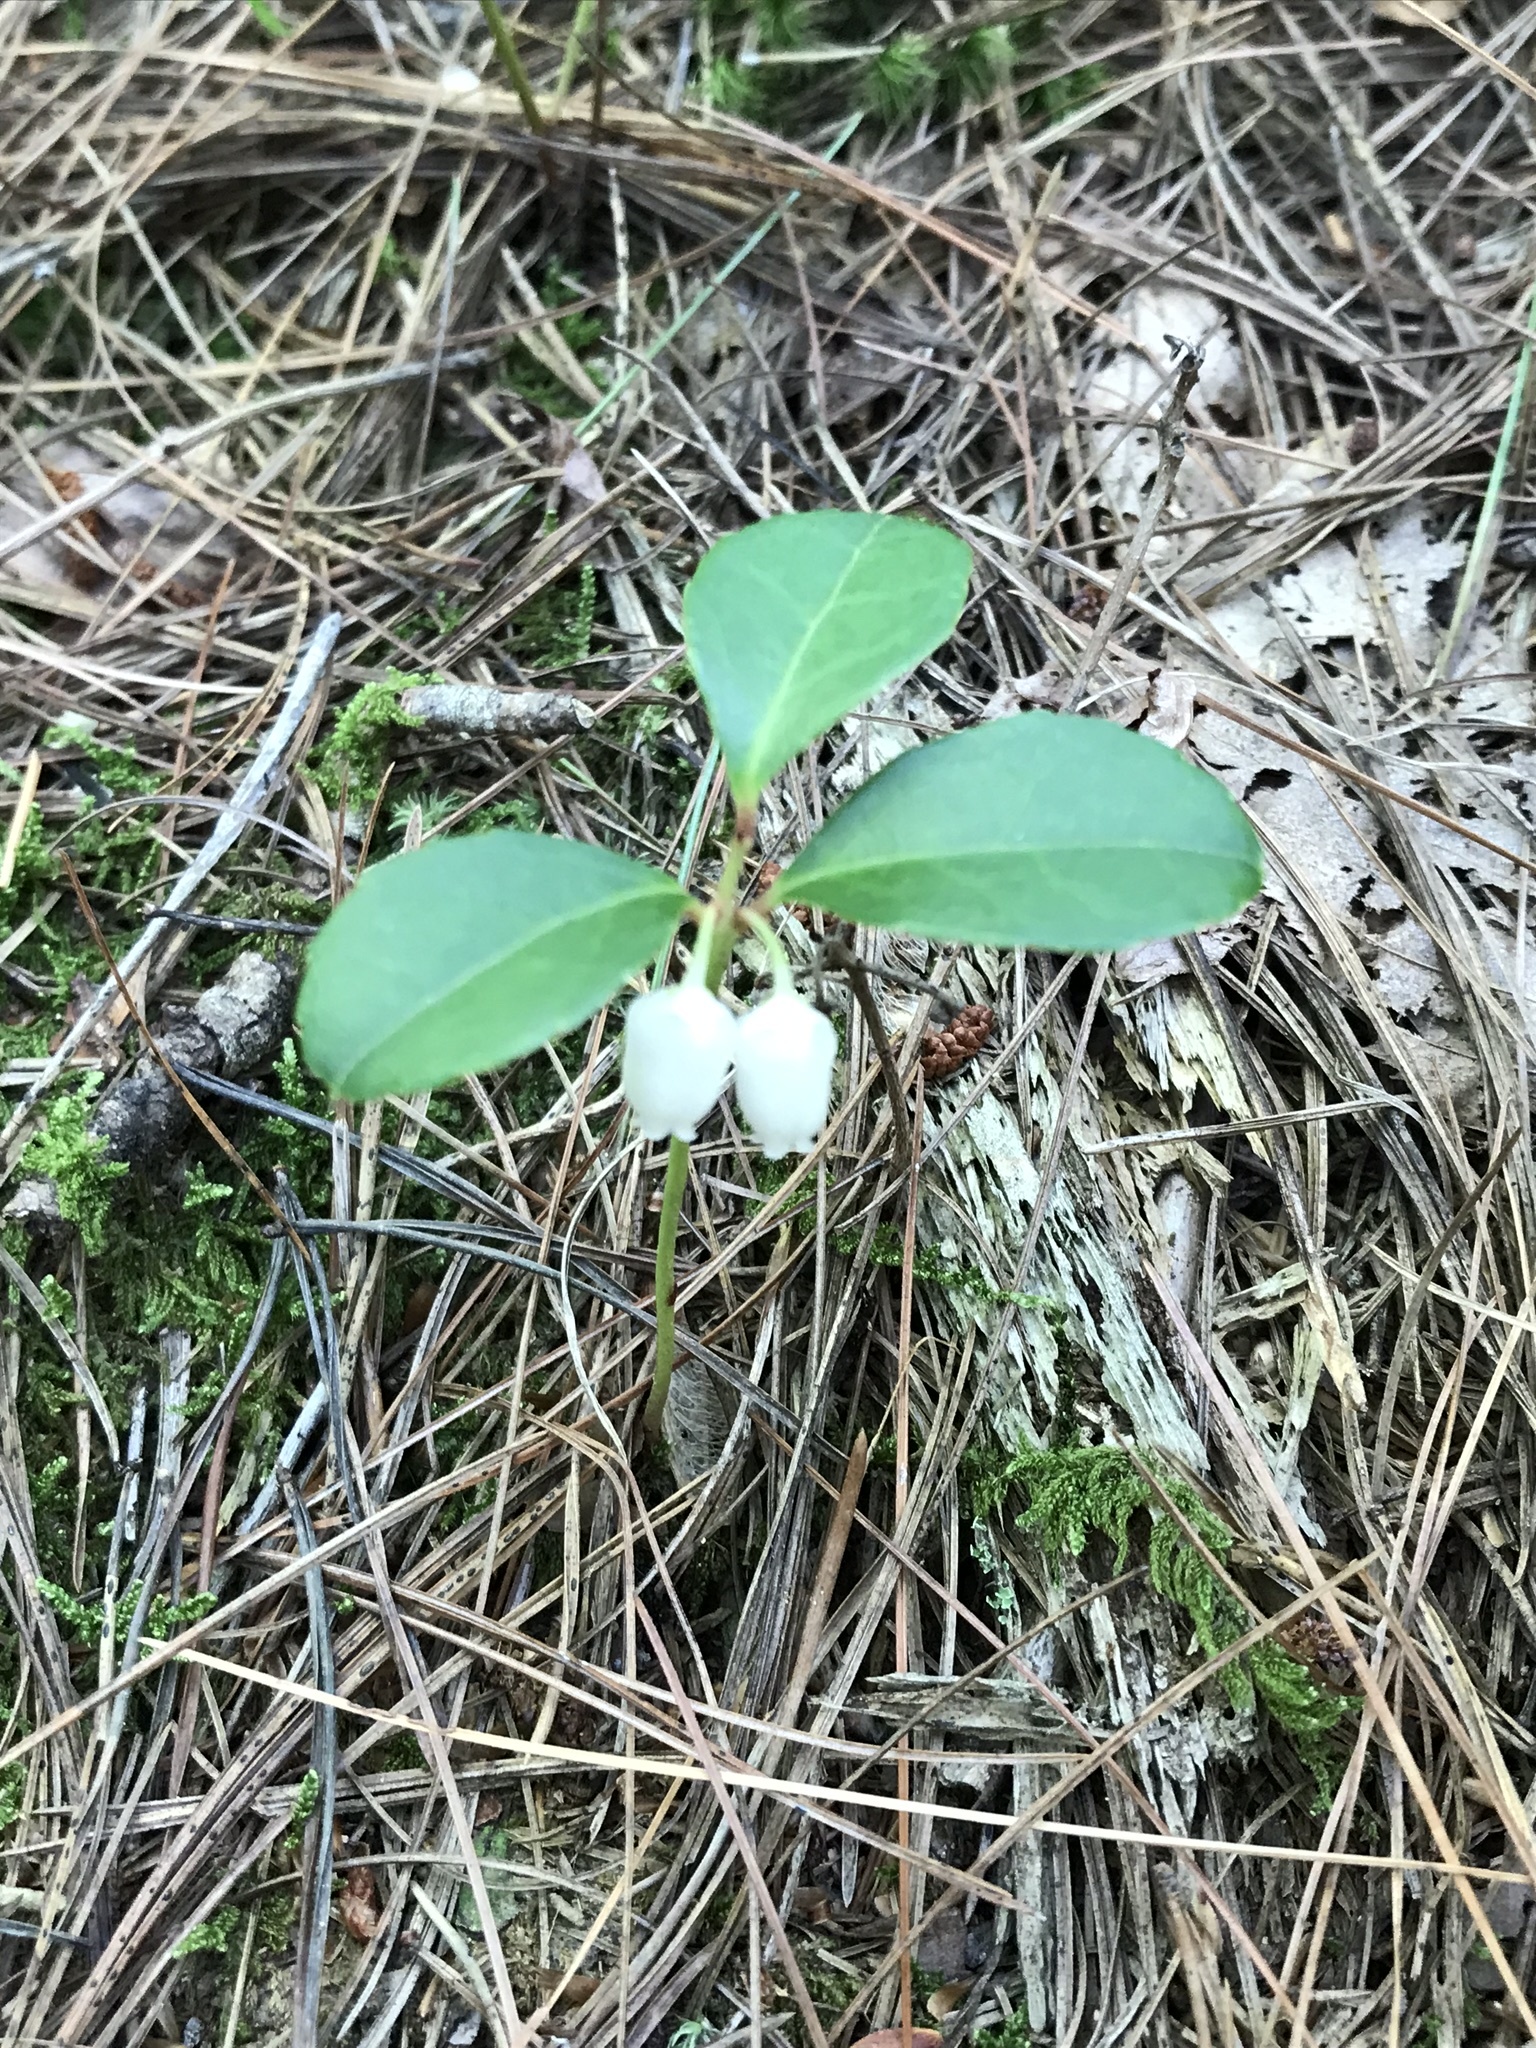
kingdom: Plantae
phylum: Tracheophyta
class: Magnoliopsida
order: Ericales
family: Ericaceae
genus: Gaultheria
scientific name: Gaultheria procumbens
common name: Checkerberry
